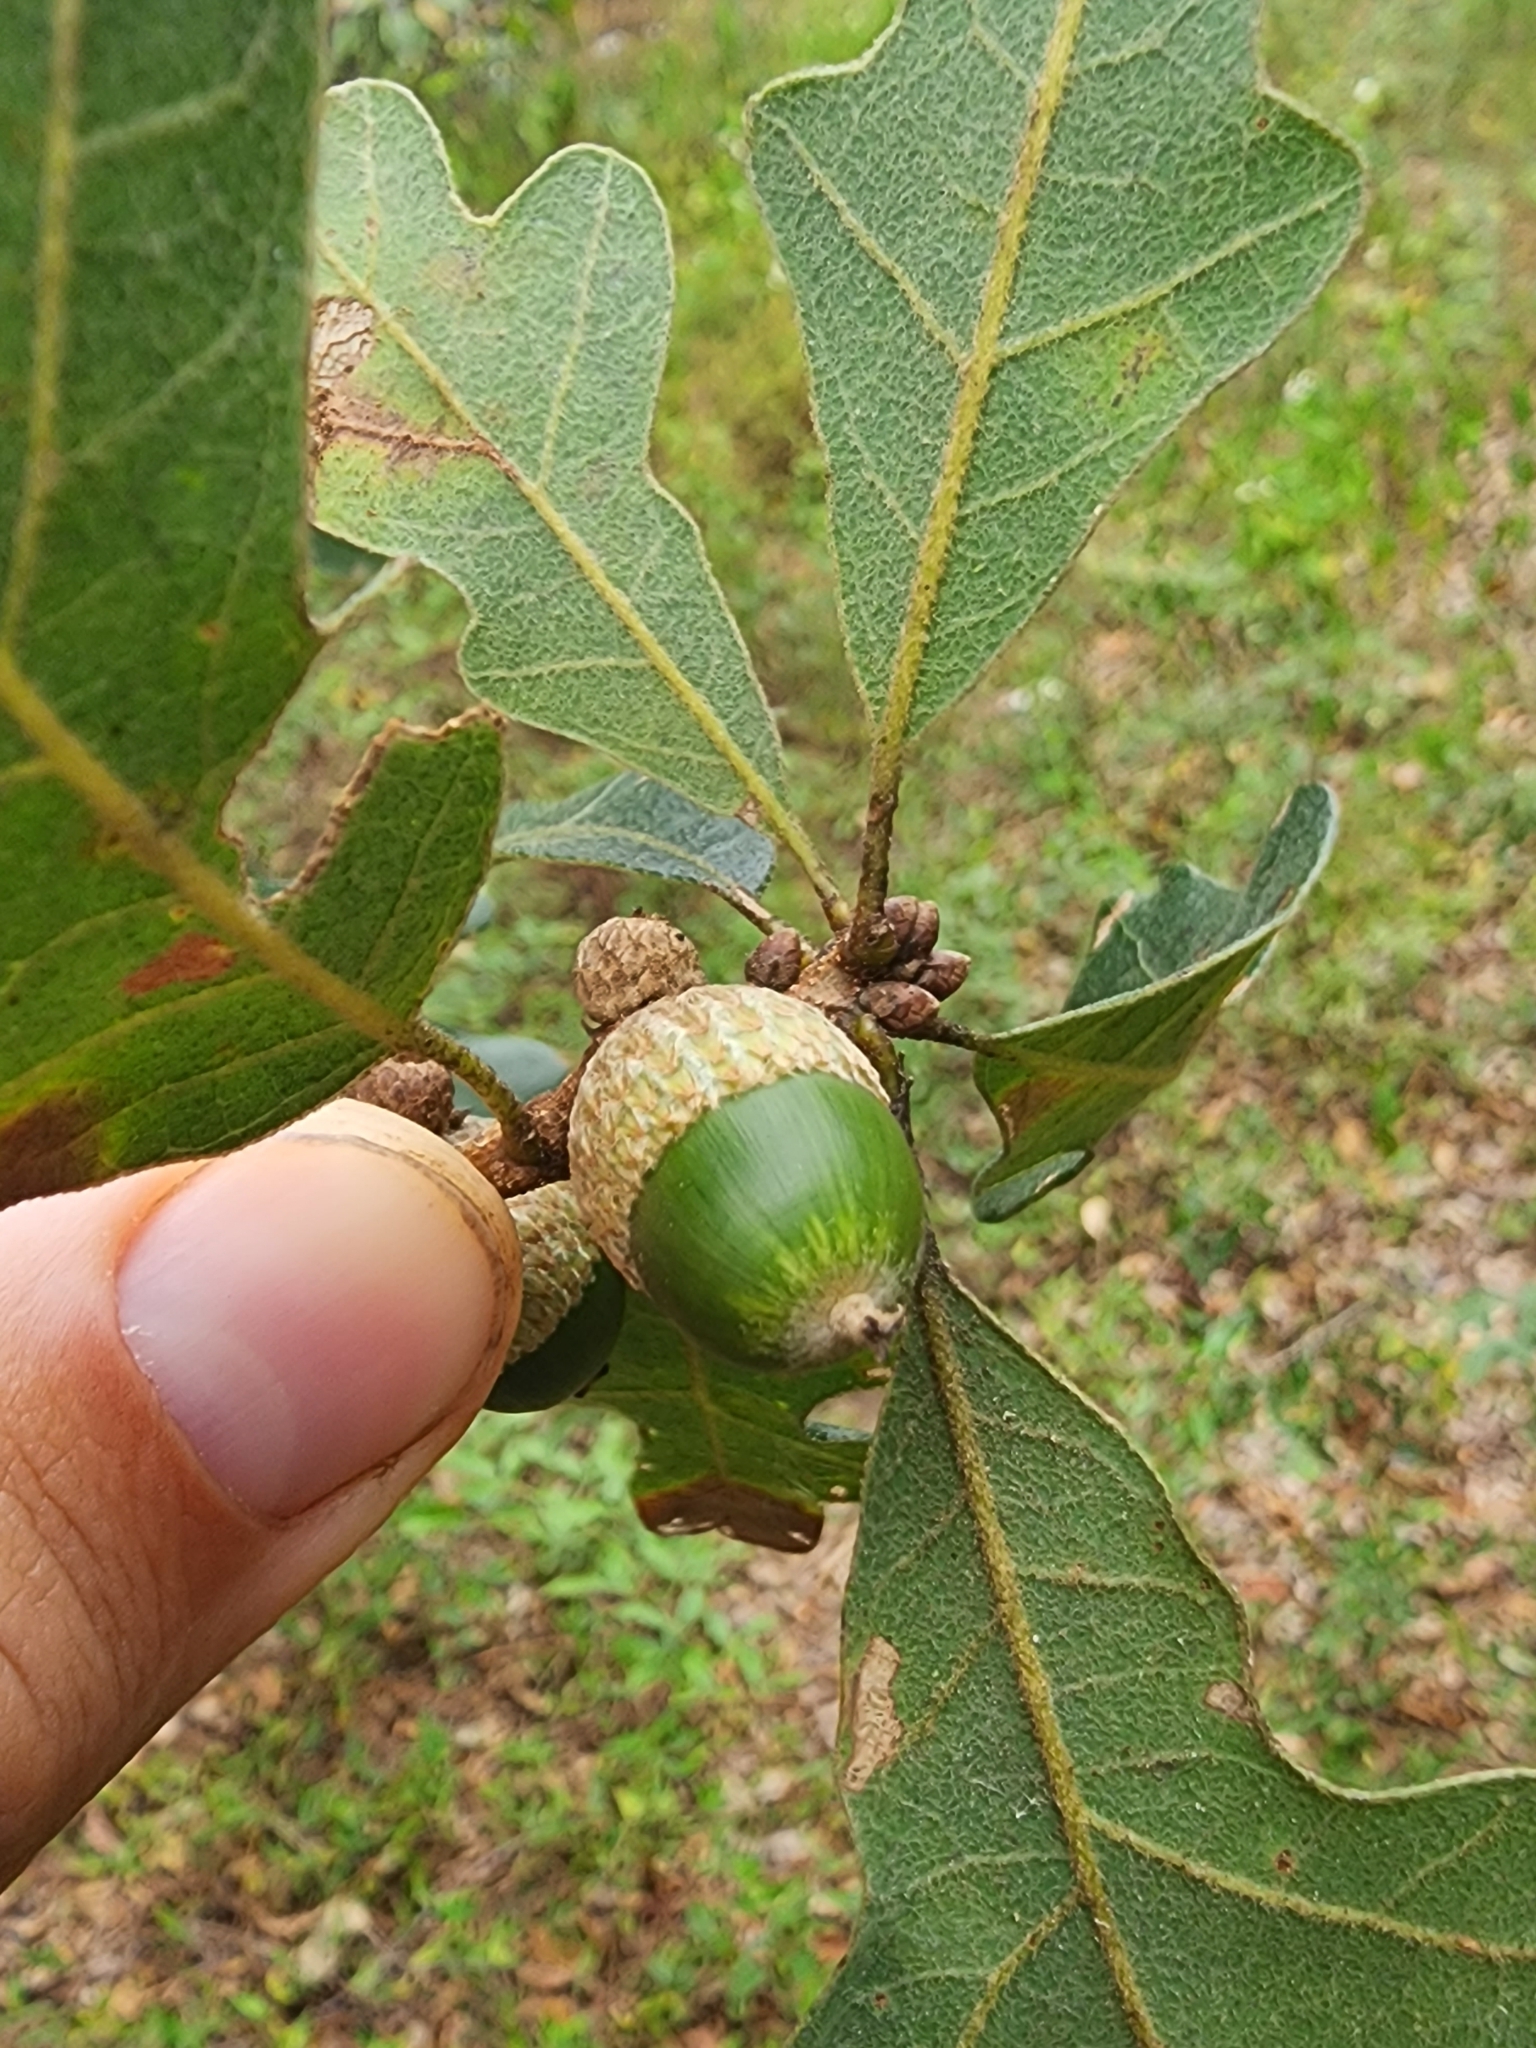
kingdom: Plantae
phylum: Tracheophyta
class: Magnoliopsida
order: Fagales
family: Fagaceae
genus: Quercus
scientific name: Quercus margaretiae
